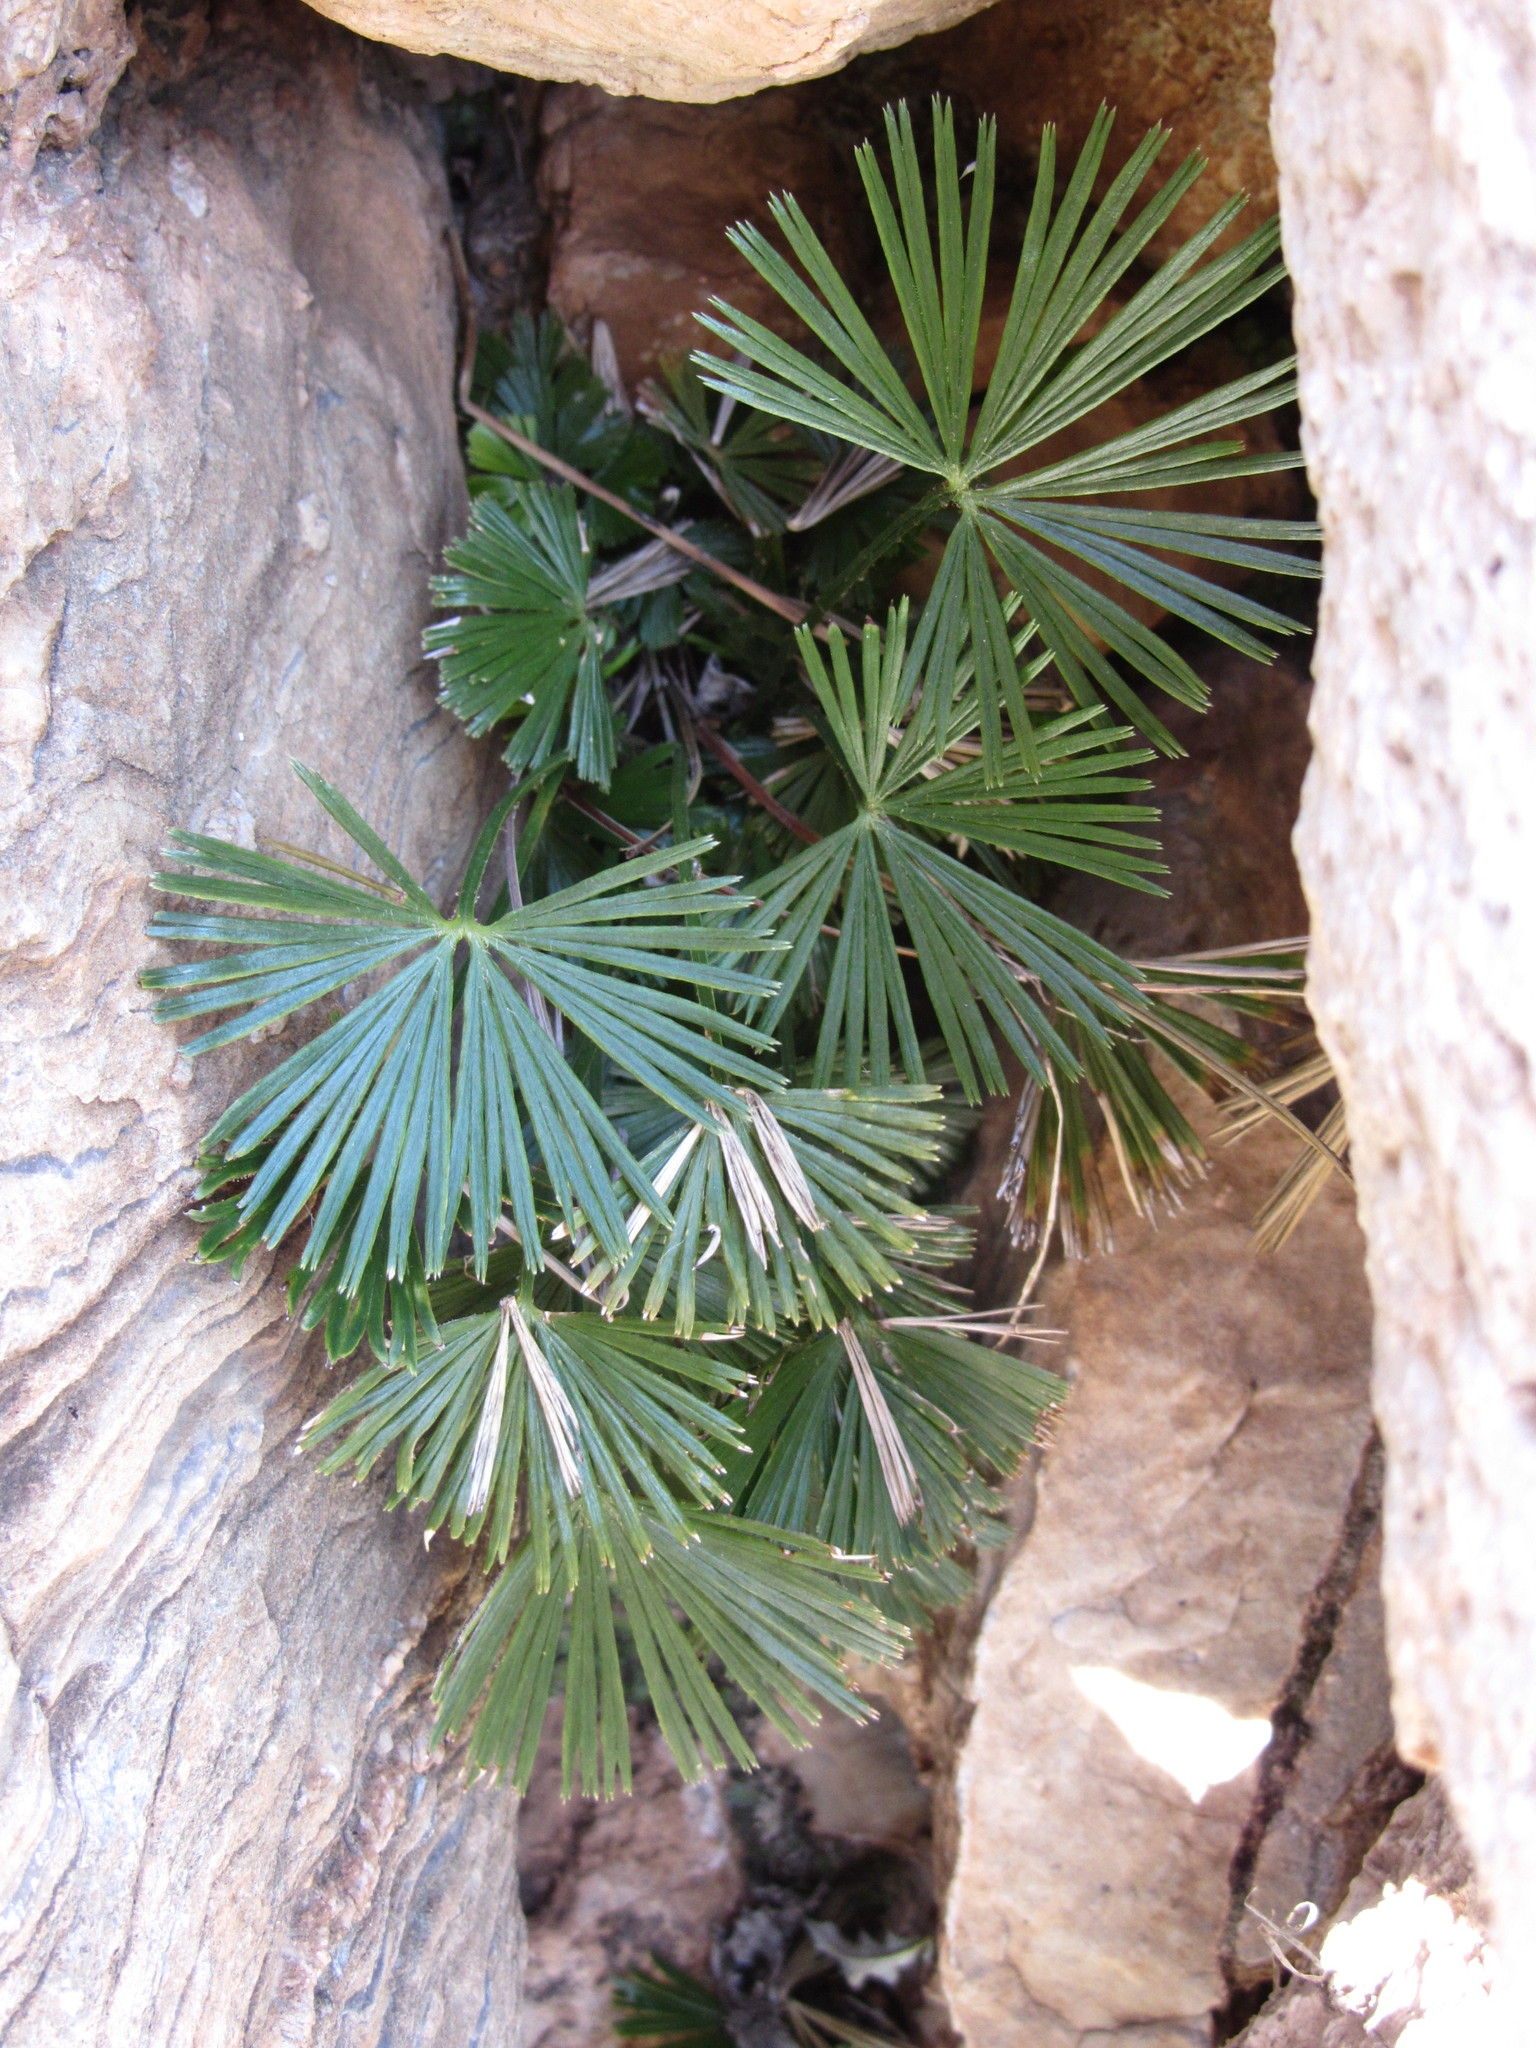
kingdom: Plantae
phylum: Tracheophyta
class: Polypodiopsida
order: Polypodiales
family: Pteridaceae
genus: Actiniopteris
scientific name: Actiniopteris radiata
